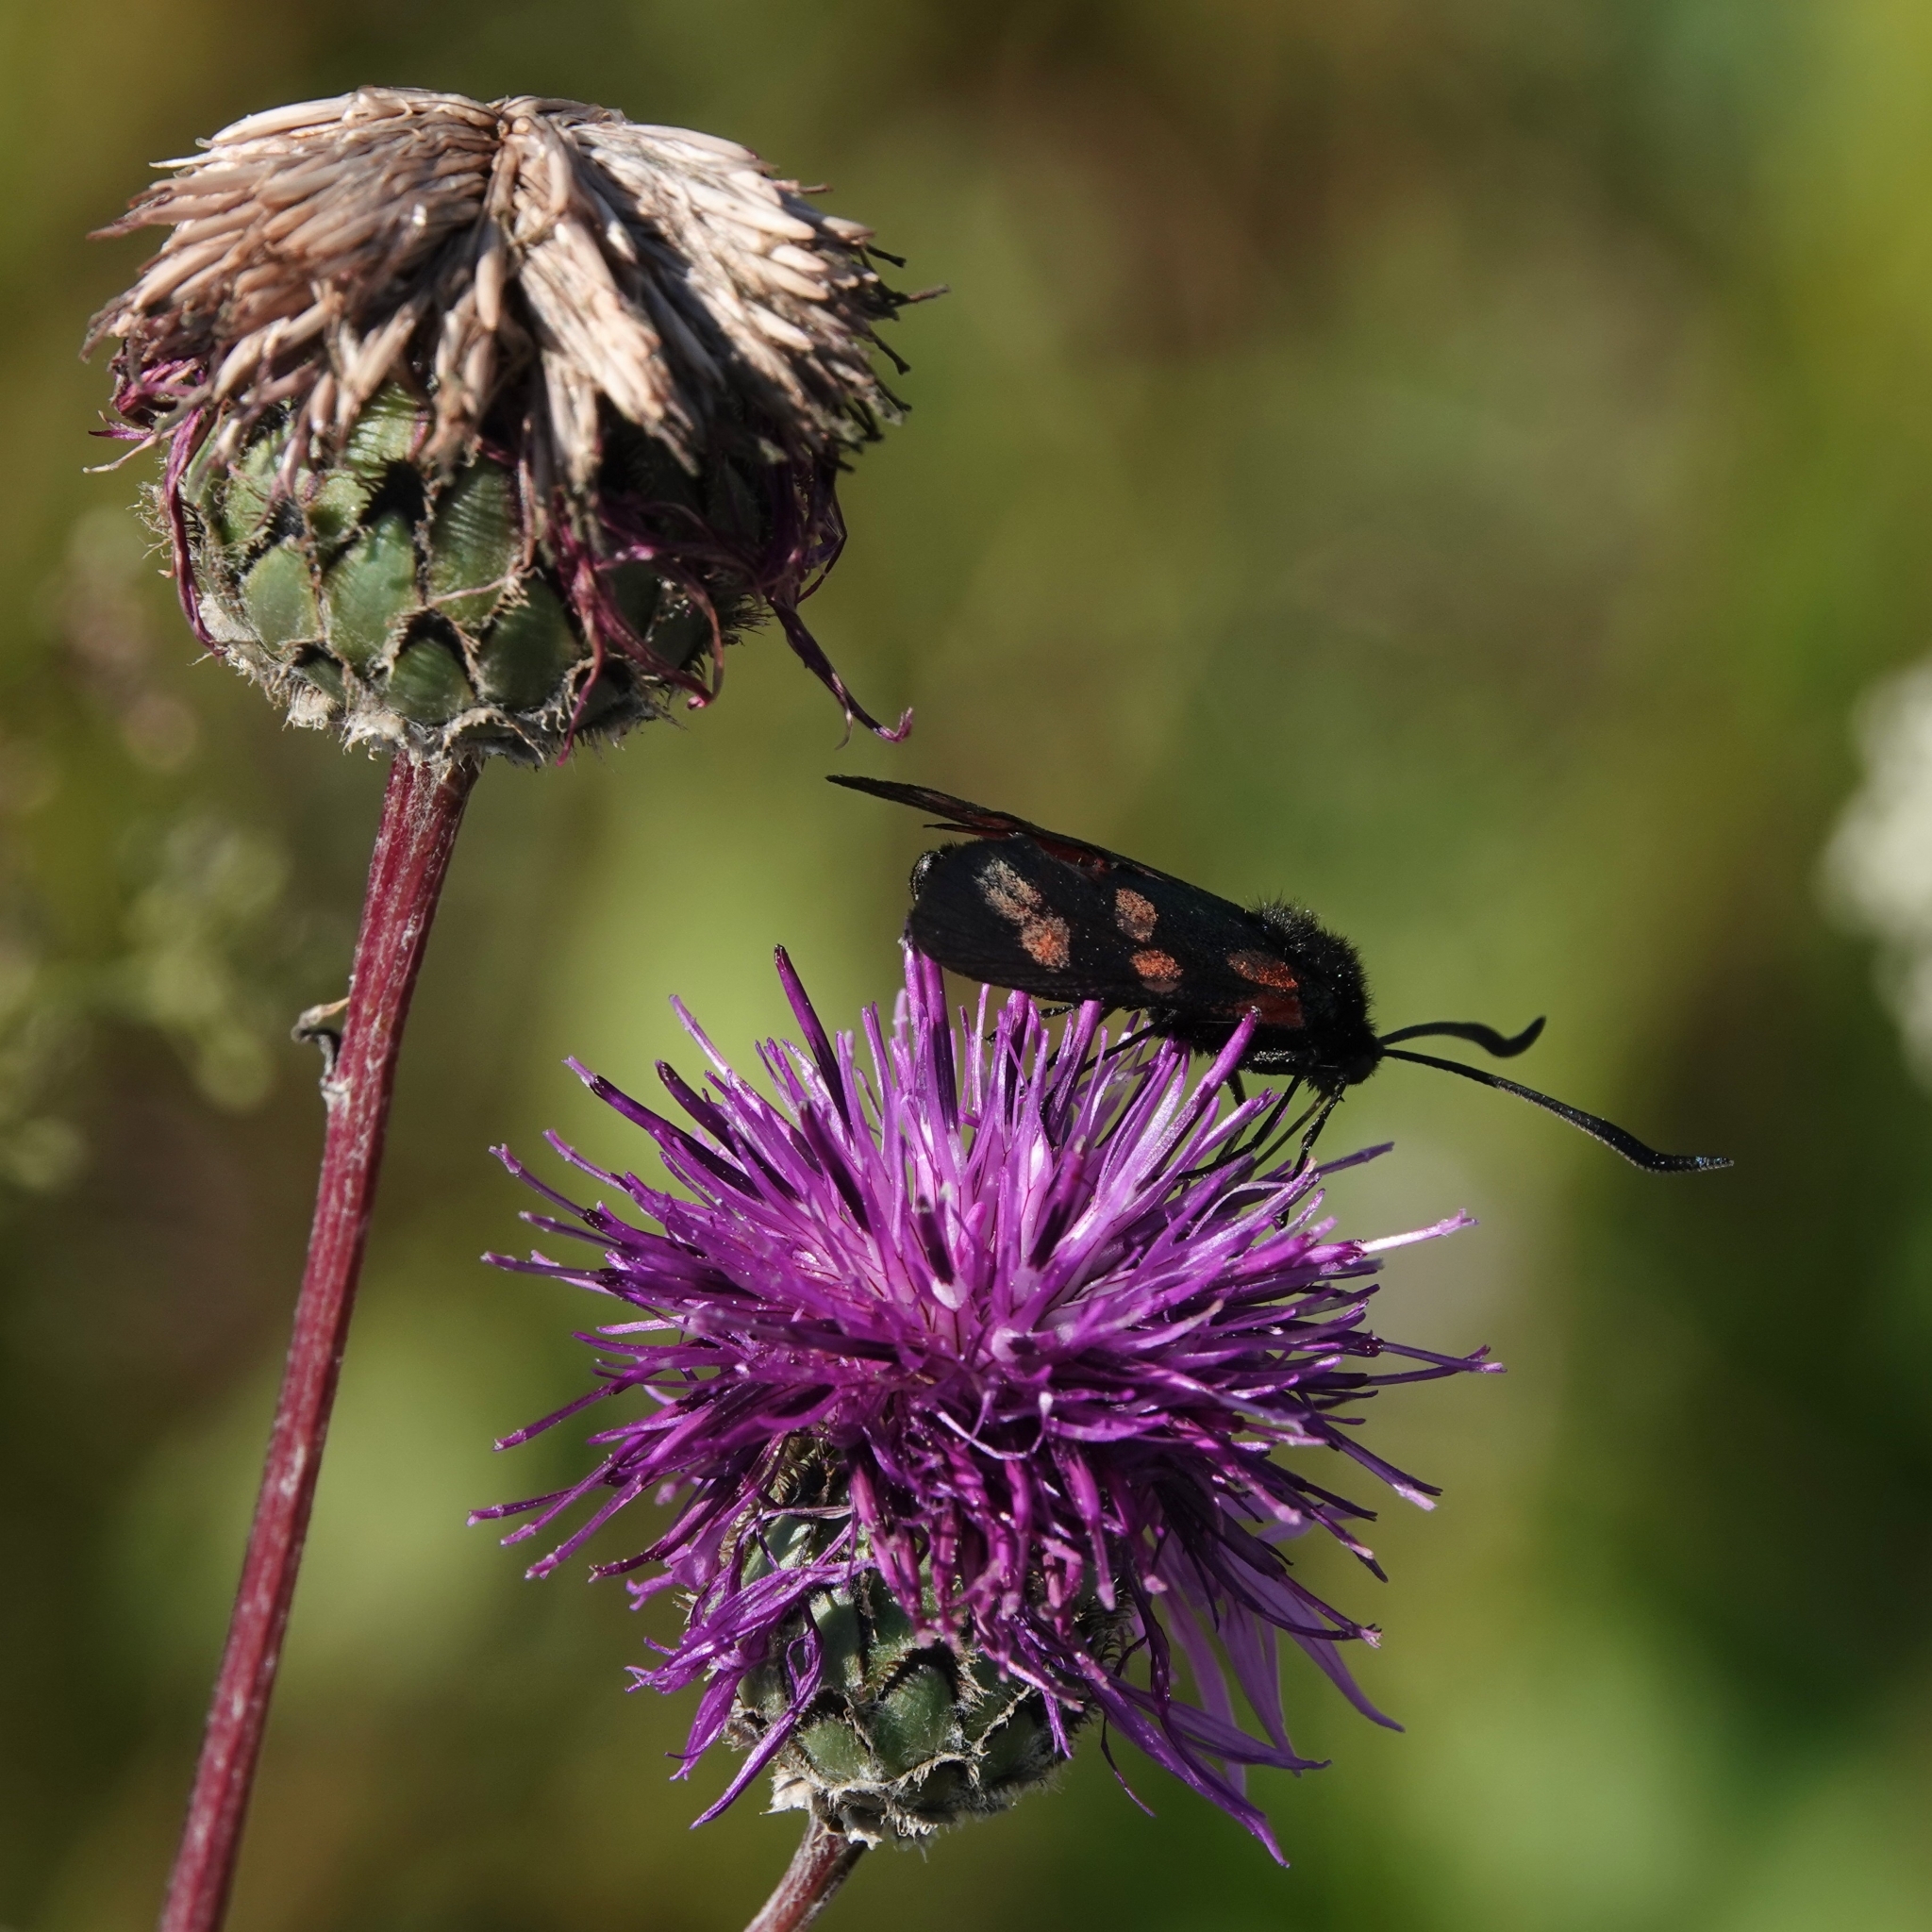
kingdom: Animalia
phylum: Arthropoda
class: Insecta
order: Lepidoptera
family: Zygaenidae
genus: Zygaena
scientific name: Zygaena filipendulae
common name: Six-spot burnet
